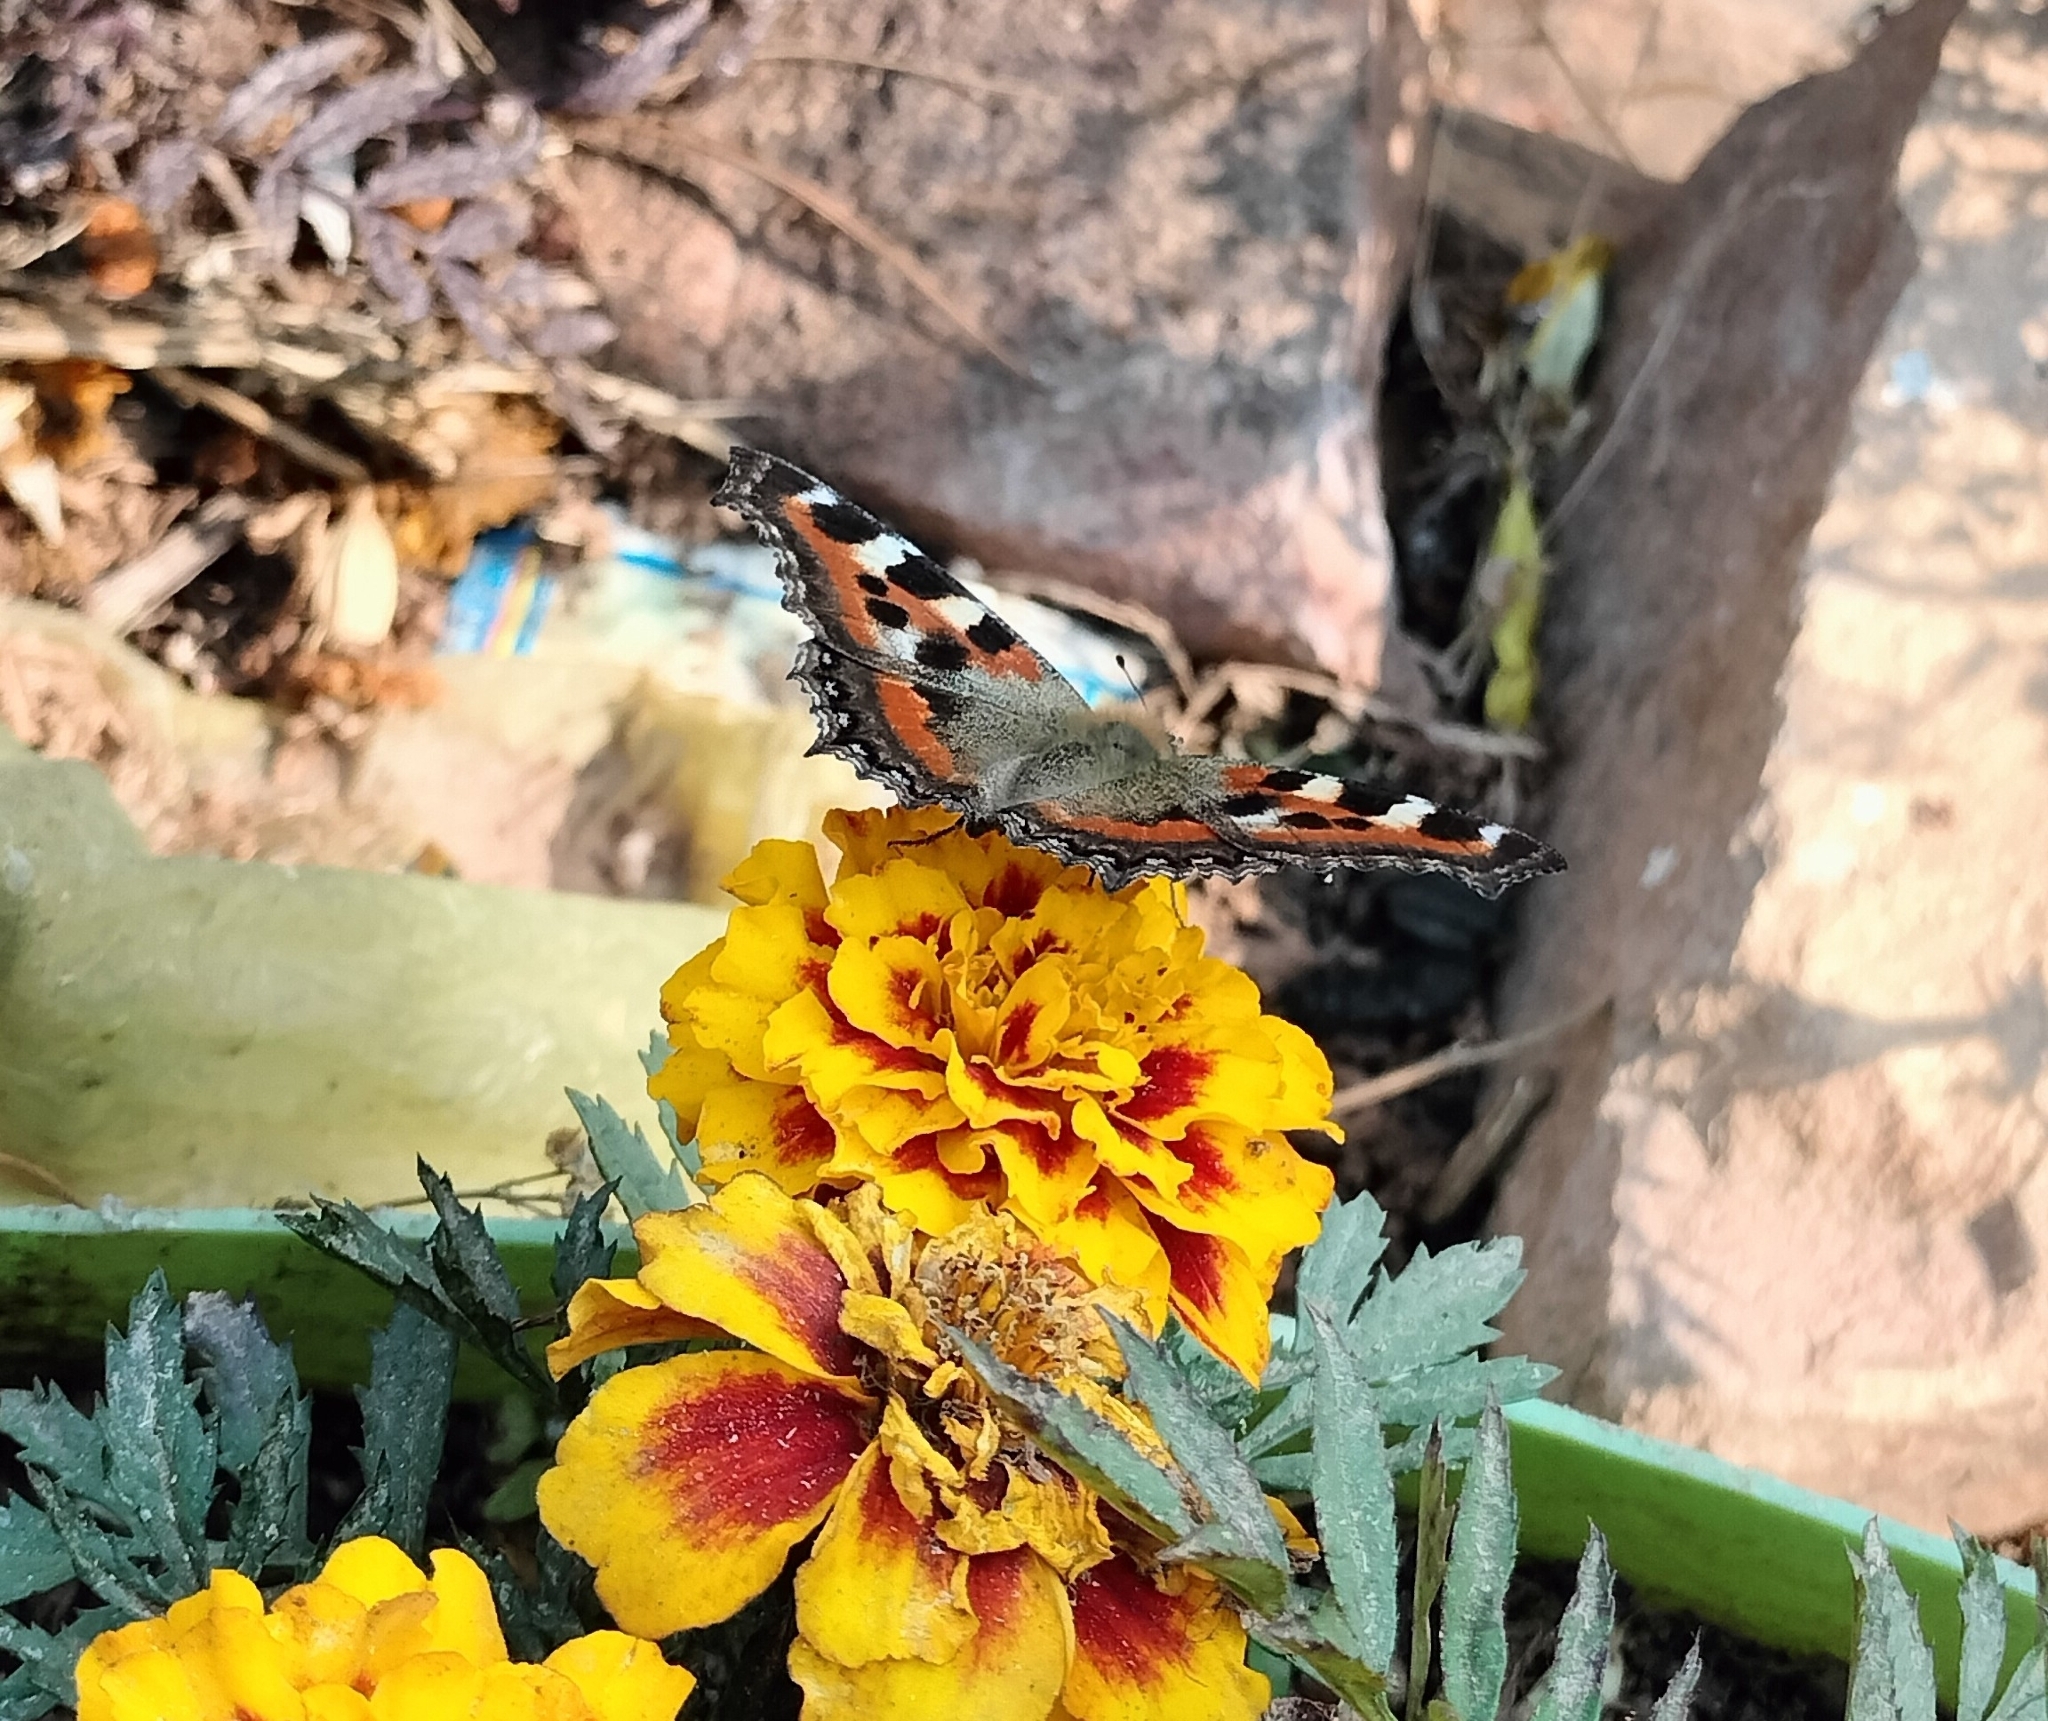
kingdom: Animalia
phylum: Arthropoda
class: Insecta
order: Lepidoptera
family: Nymphalidae
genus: Aglais
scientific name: Aglais caschmirensis
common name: Indian tortoiseshell
